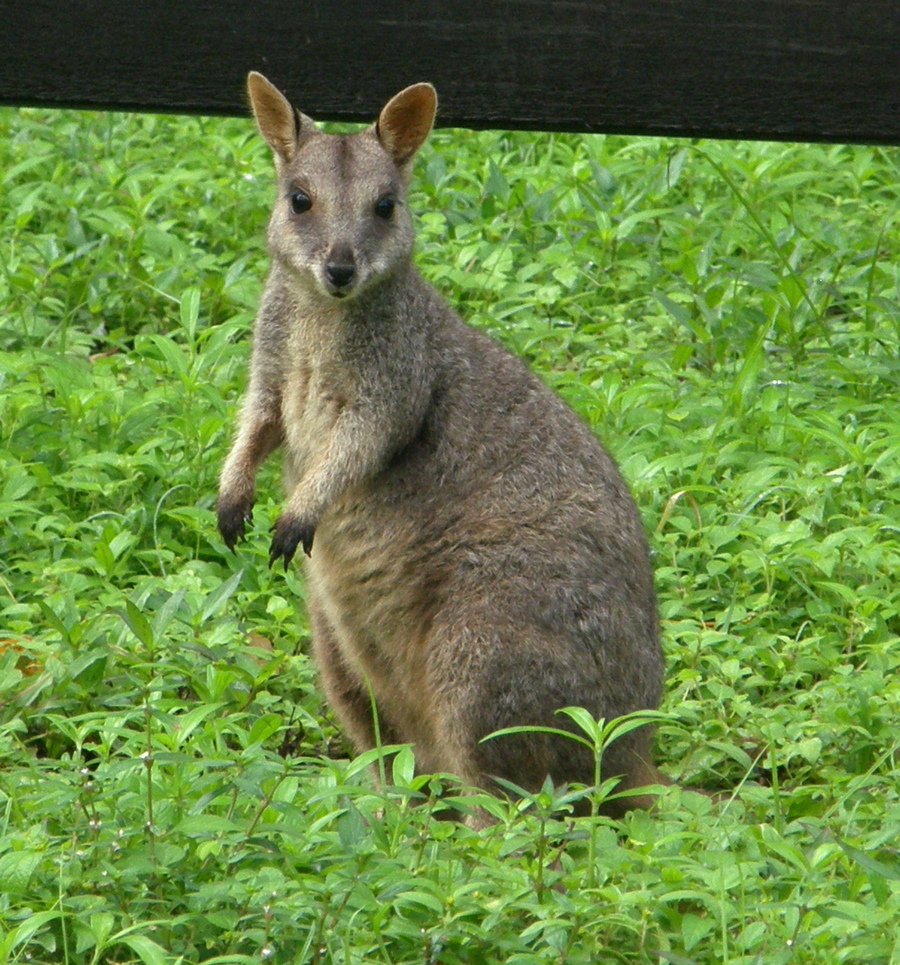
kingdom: Animalia
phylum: Chordata
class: Mammalia
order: Diprotodontia
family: Macropodidae
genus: Petrogale
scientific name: Petrogale assimilis
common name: Allied rock wallaby
